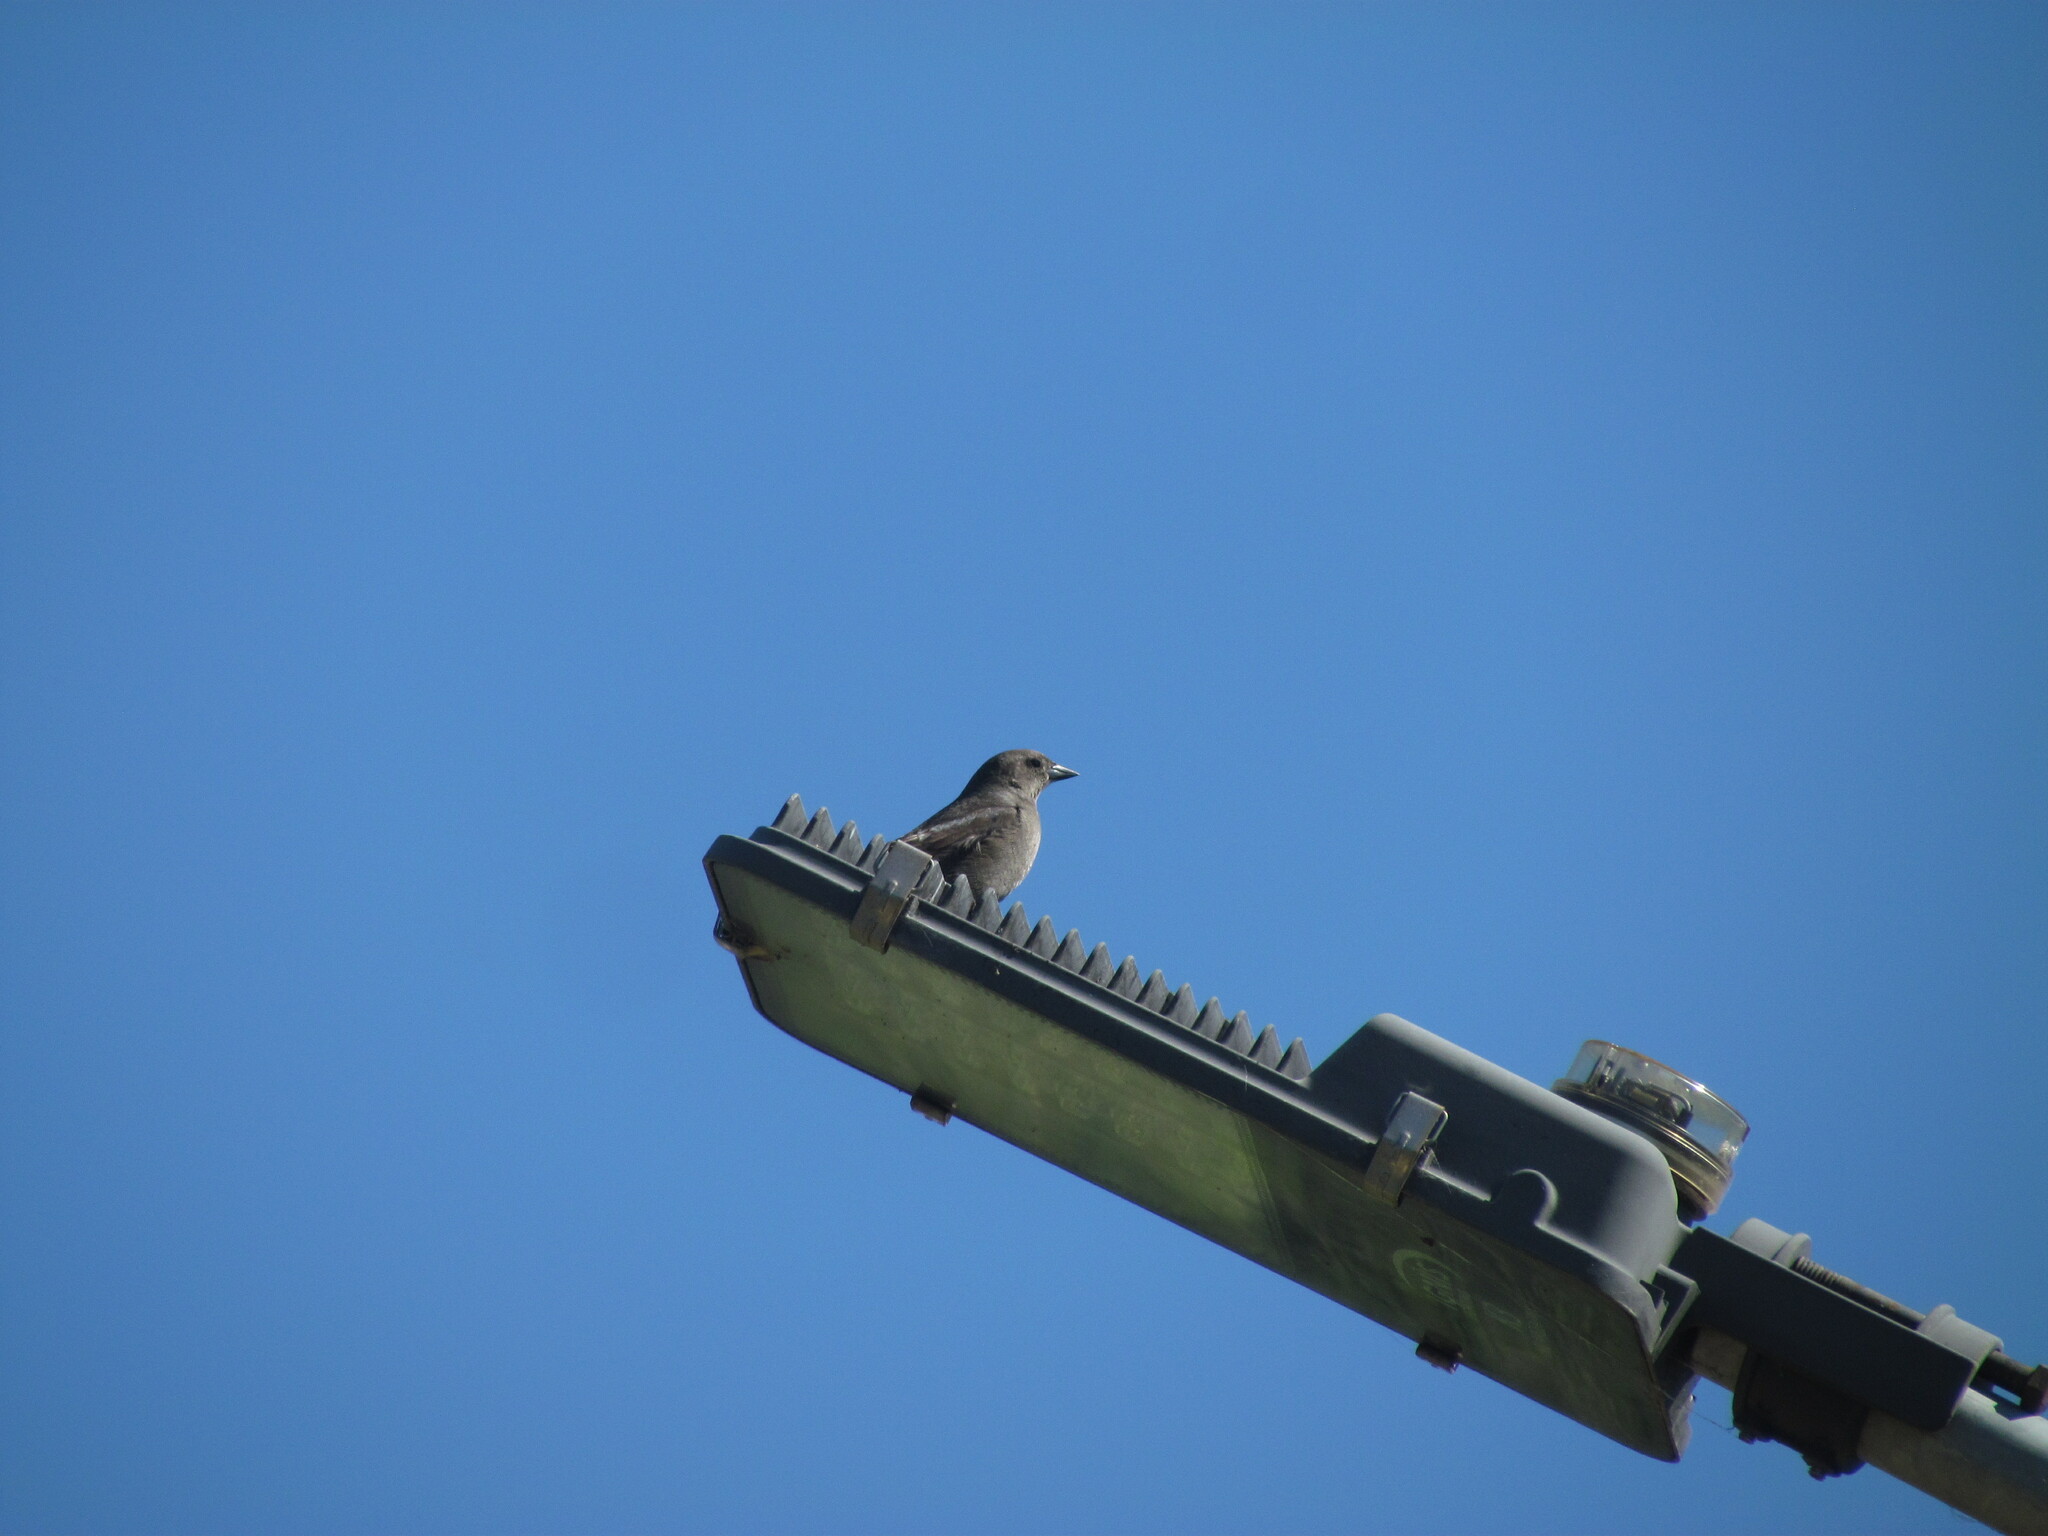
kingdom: Animalia
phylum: Chordata
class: Aves
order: Passeriformes
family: Icteridae
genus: Molothrus
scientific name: Molothrus bonariensis
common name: Shiny cowbird
